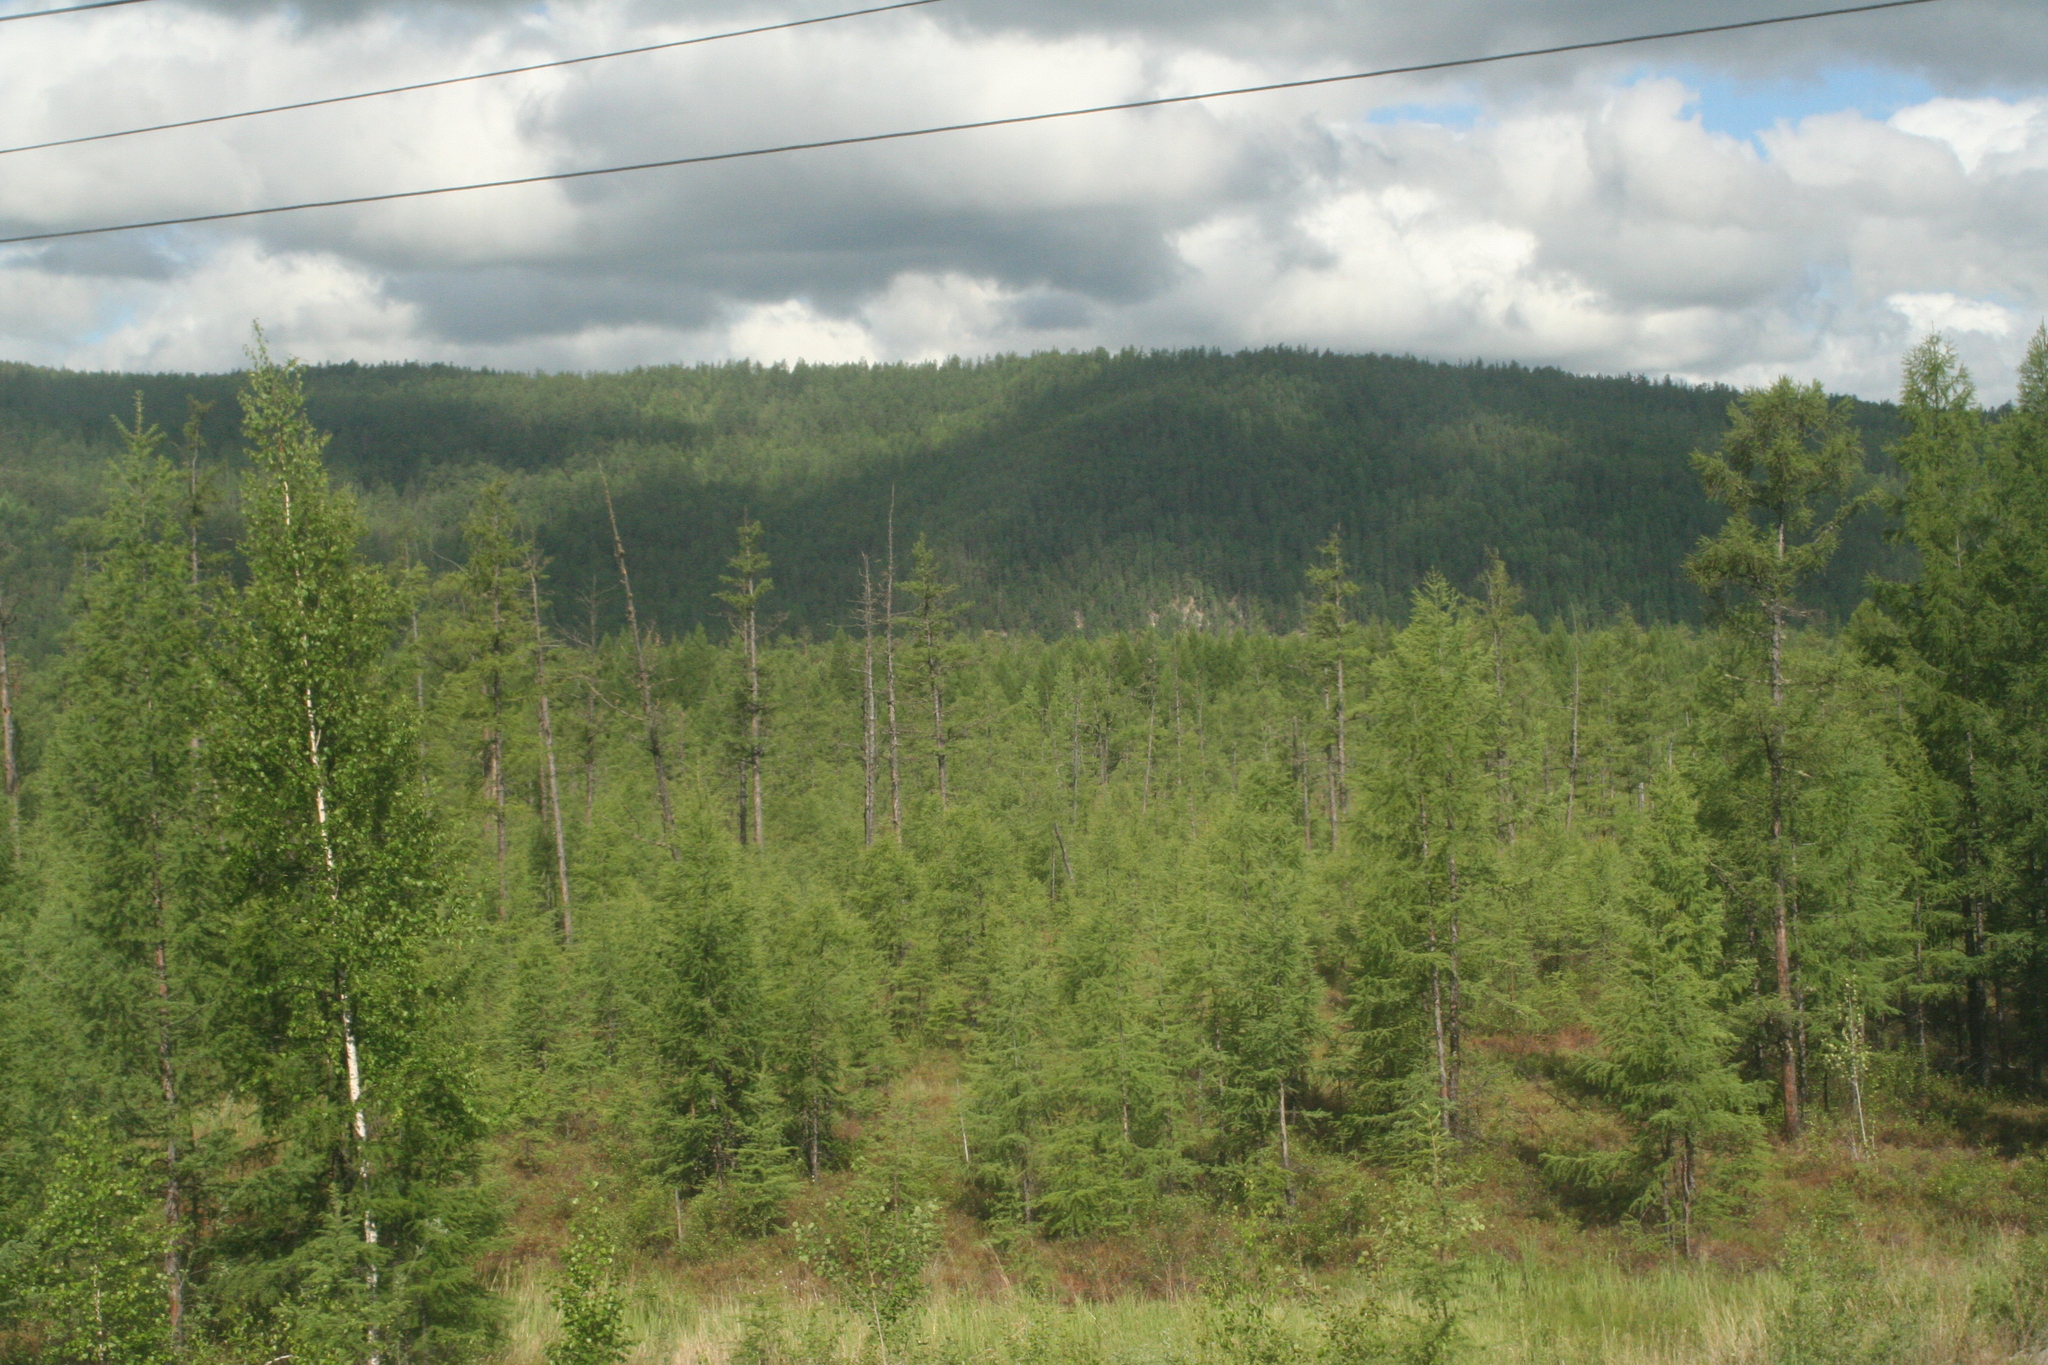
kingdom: Plantae
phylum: Tracheophyta
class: Pinopsida
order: Pinales
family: Pinaceae
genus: Larix
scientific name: Larix gmelinii
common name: Dahurian larch
